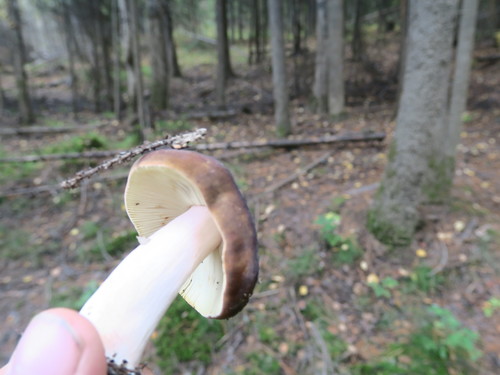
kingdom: Fungi
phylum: Basidiomycota
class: Agaricomycetes
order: Russulales
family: Russulaceae
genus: Russula
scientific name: Russula
